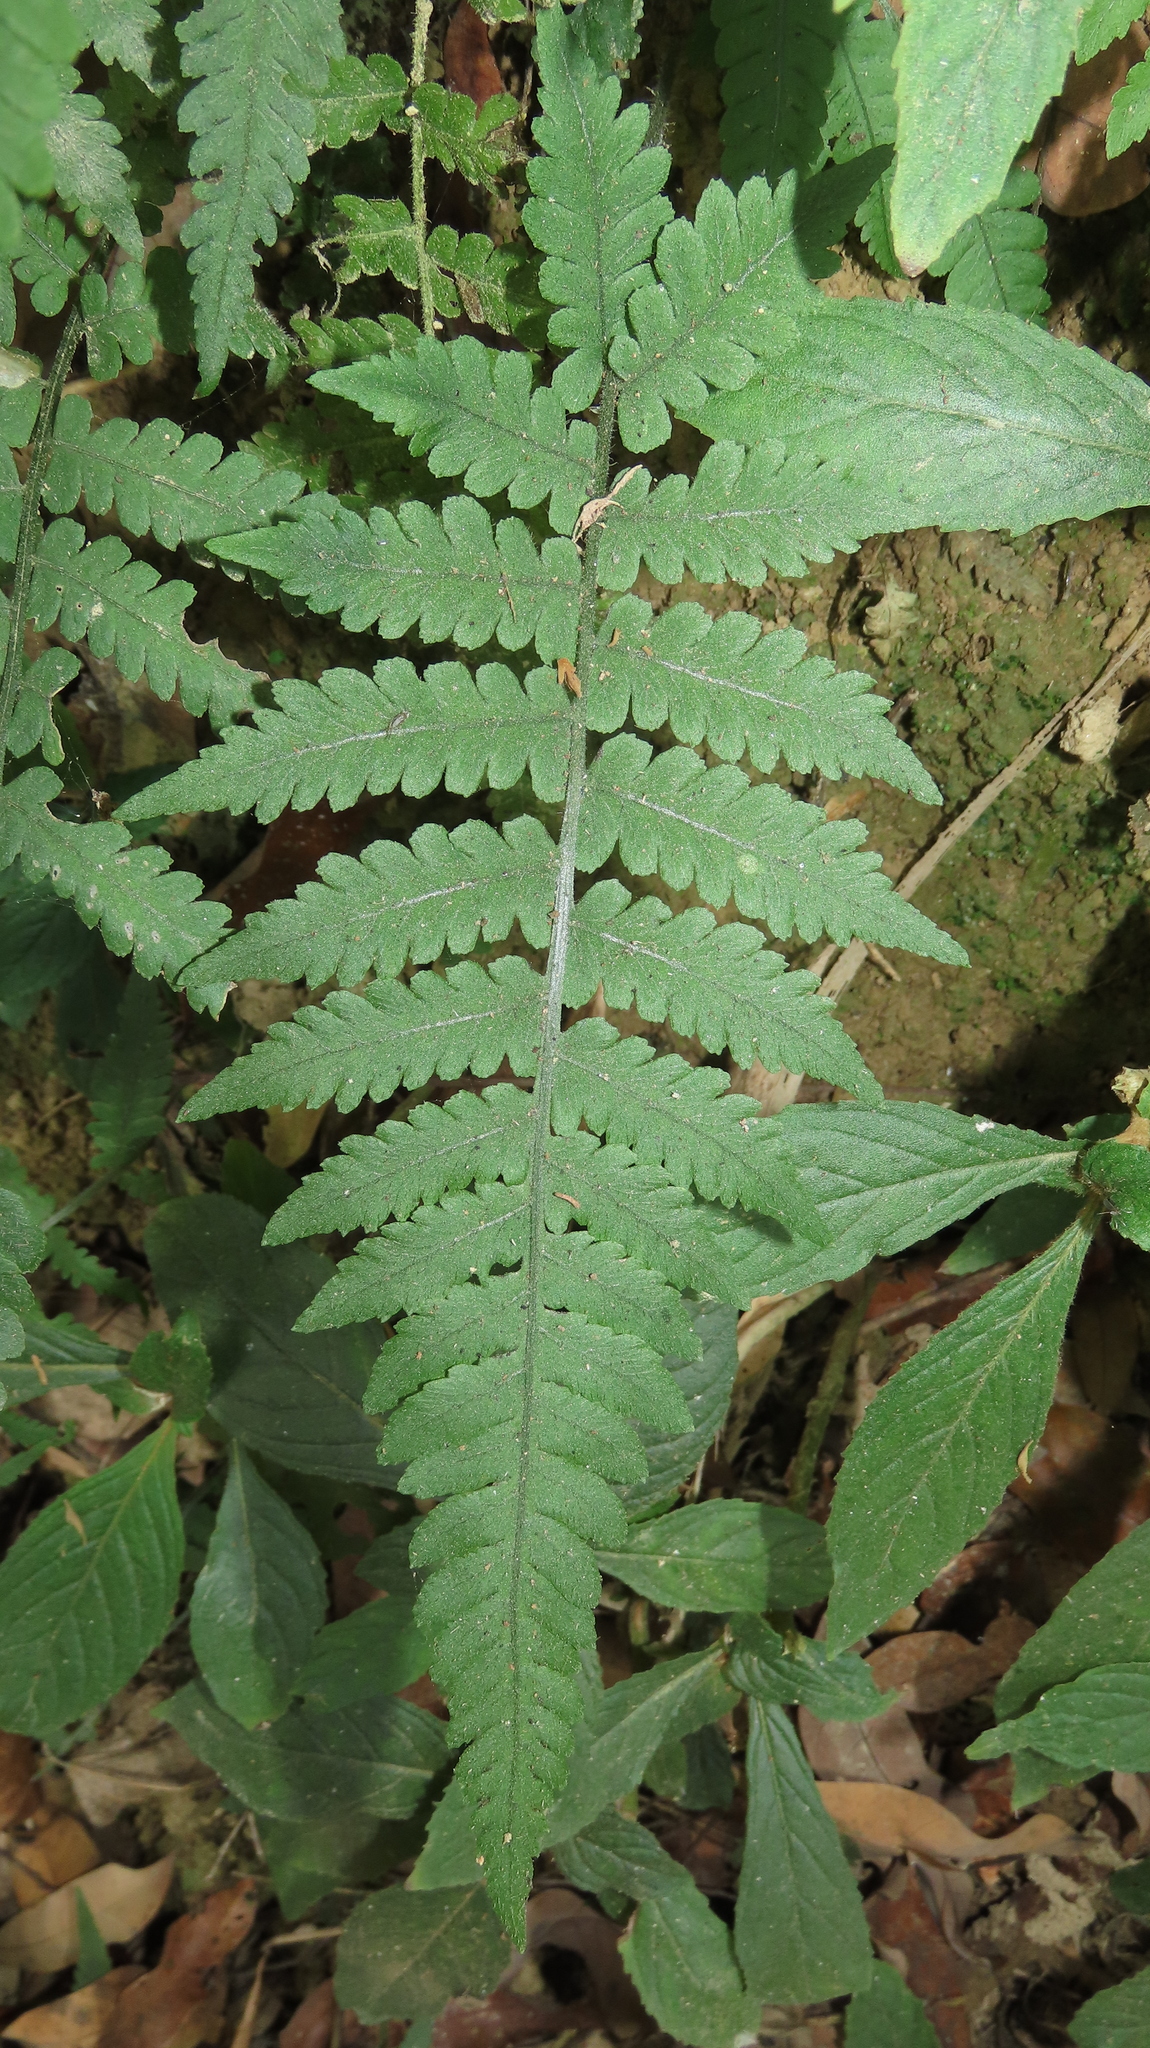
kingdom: Plantae
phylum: Tracheophyta
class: Polypodiopsida
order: Polypodiales
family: Athyriaceae
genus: Deparia
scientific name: Deparia petersenii
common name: Japanese false spleenwort
